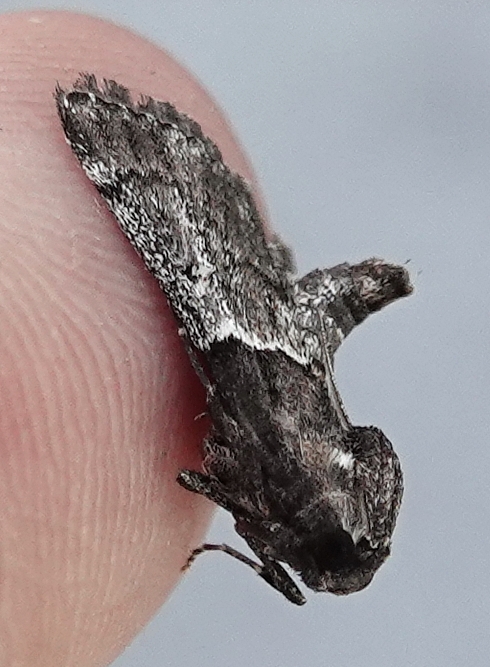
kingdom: Animalia
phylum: Arthropoda
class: Insecta
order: Lepidoptera
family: Pyralidae
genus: Macalla
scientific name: Macalla zelleri
